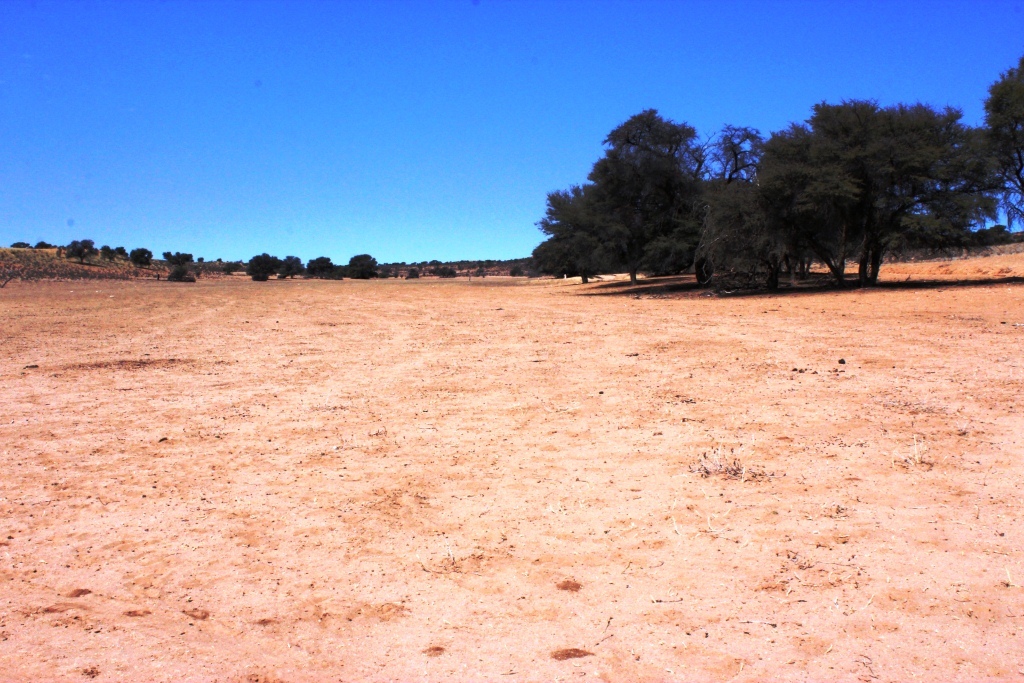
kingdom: Plantae
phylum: Tracheophyta
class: Magnoliopsida
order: Fabales
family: Fabaceae
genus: Vachellia
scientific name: Vachellia erioloba
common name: Camel thorn
